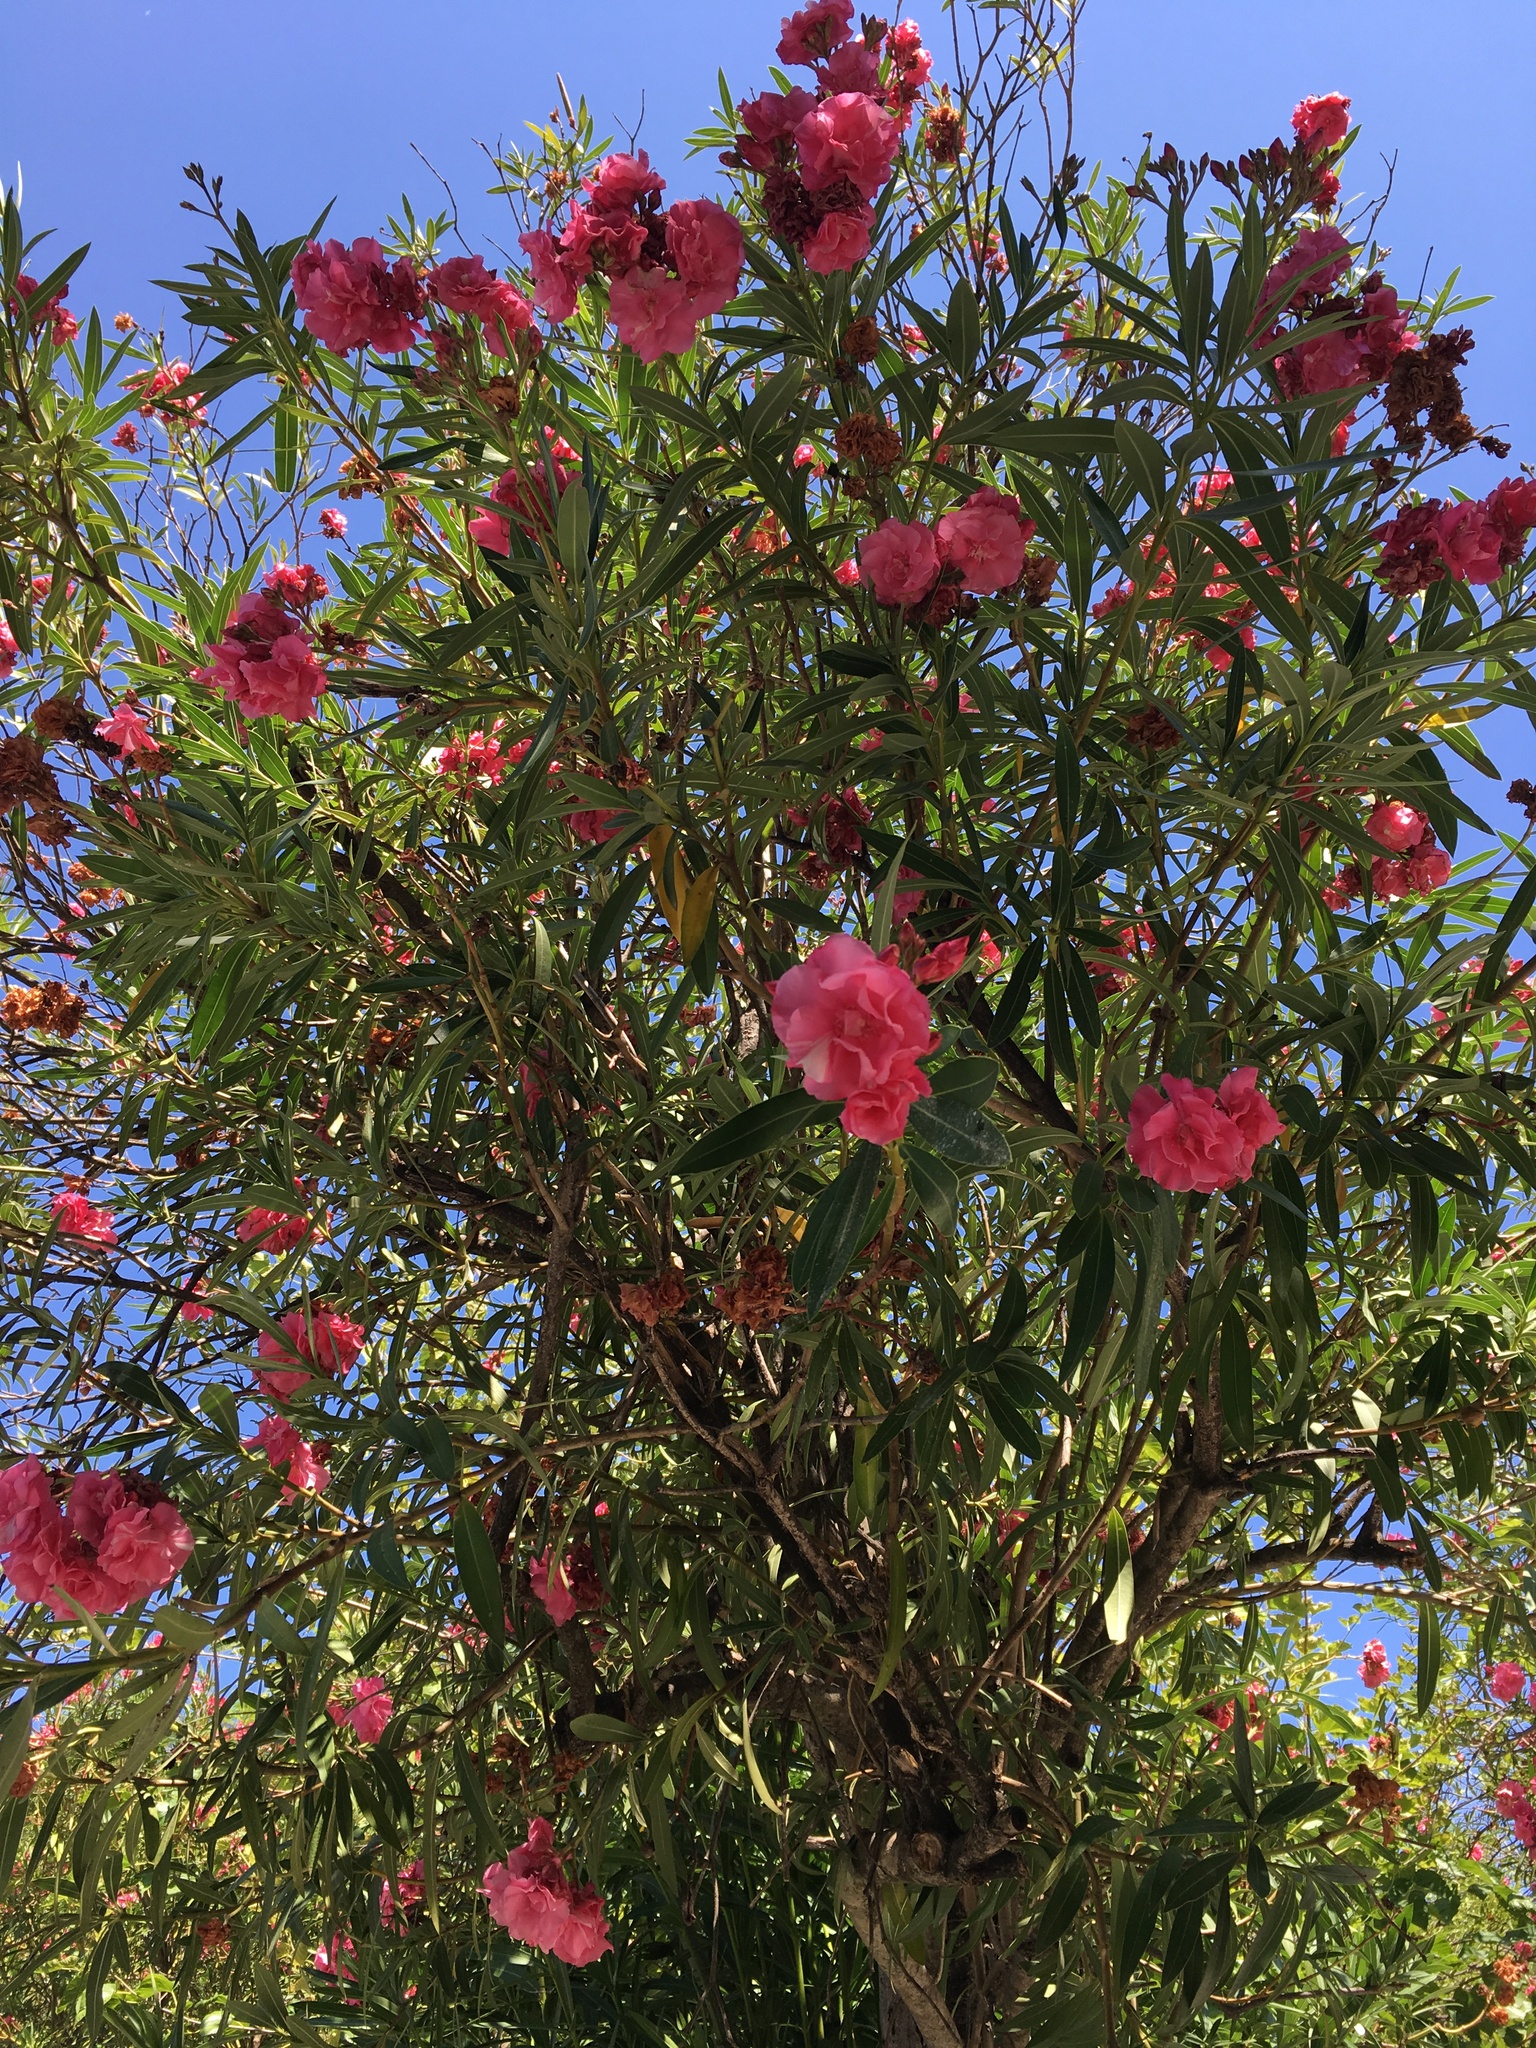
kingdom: Plantae
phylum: Tracheophyta
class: Magnoliopsida
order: Gentianales
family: Apocynaceae
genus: Nerium
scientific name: Nerium oleander
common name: Oleander
